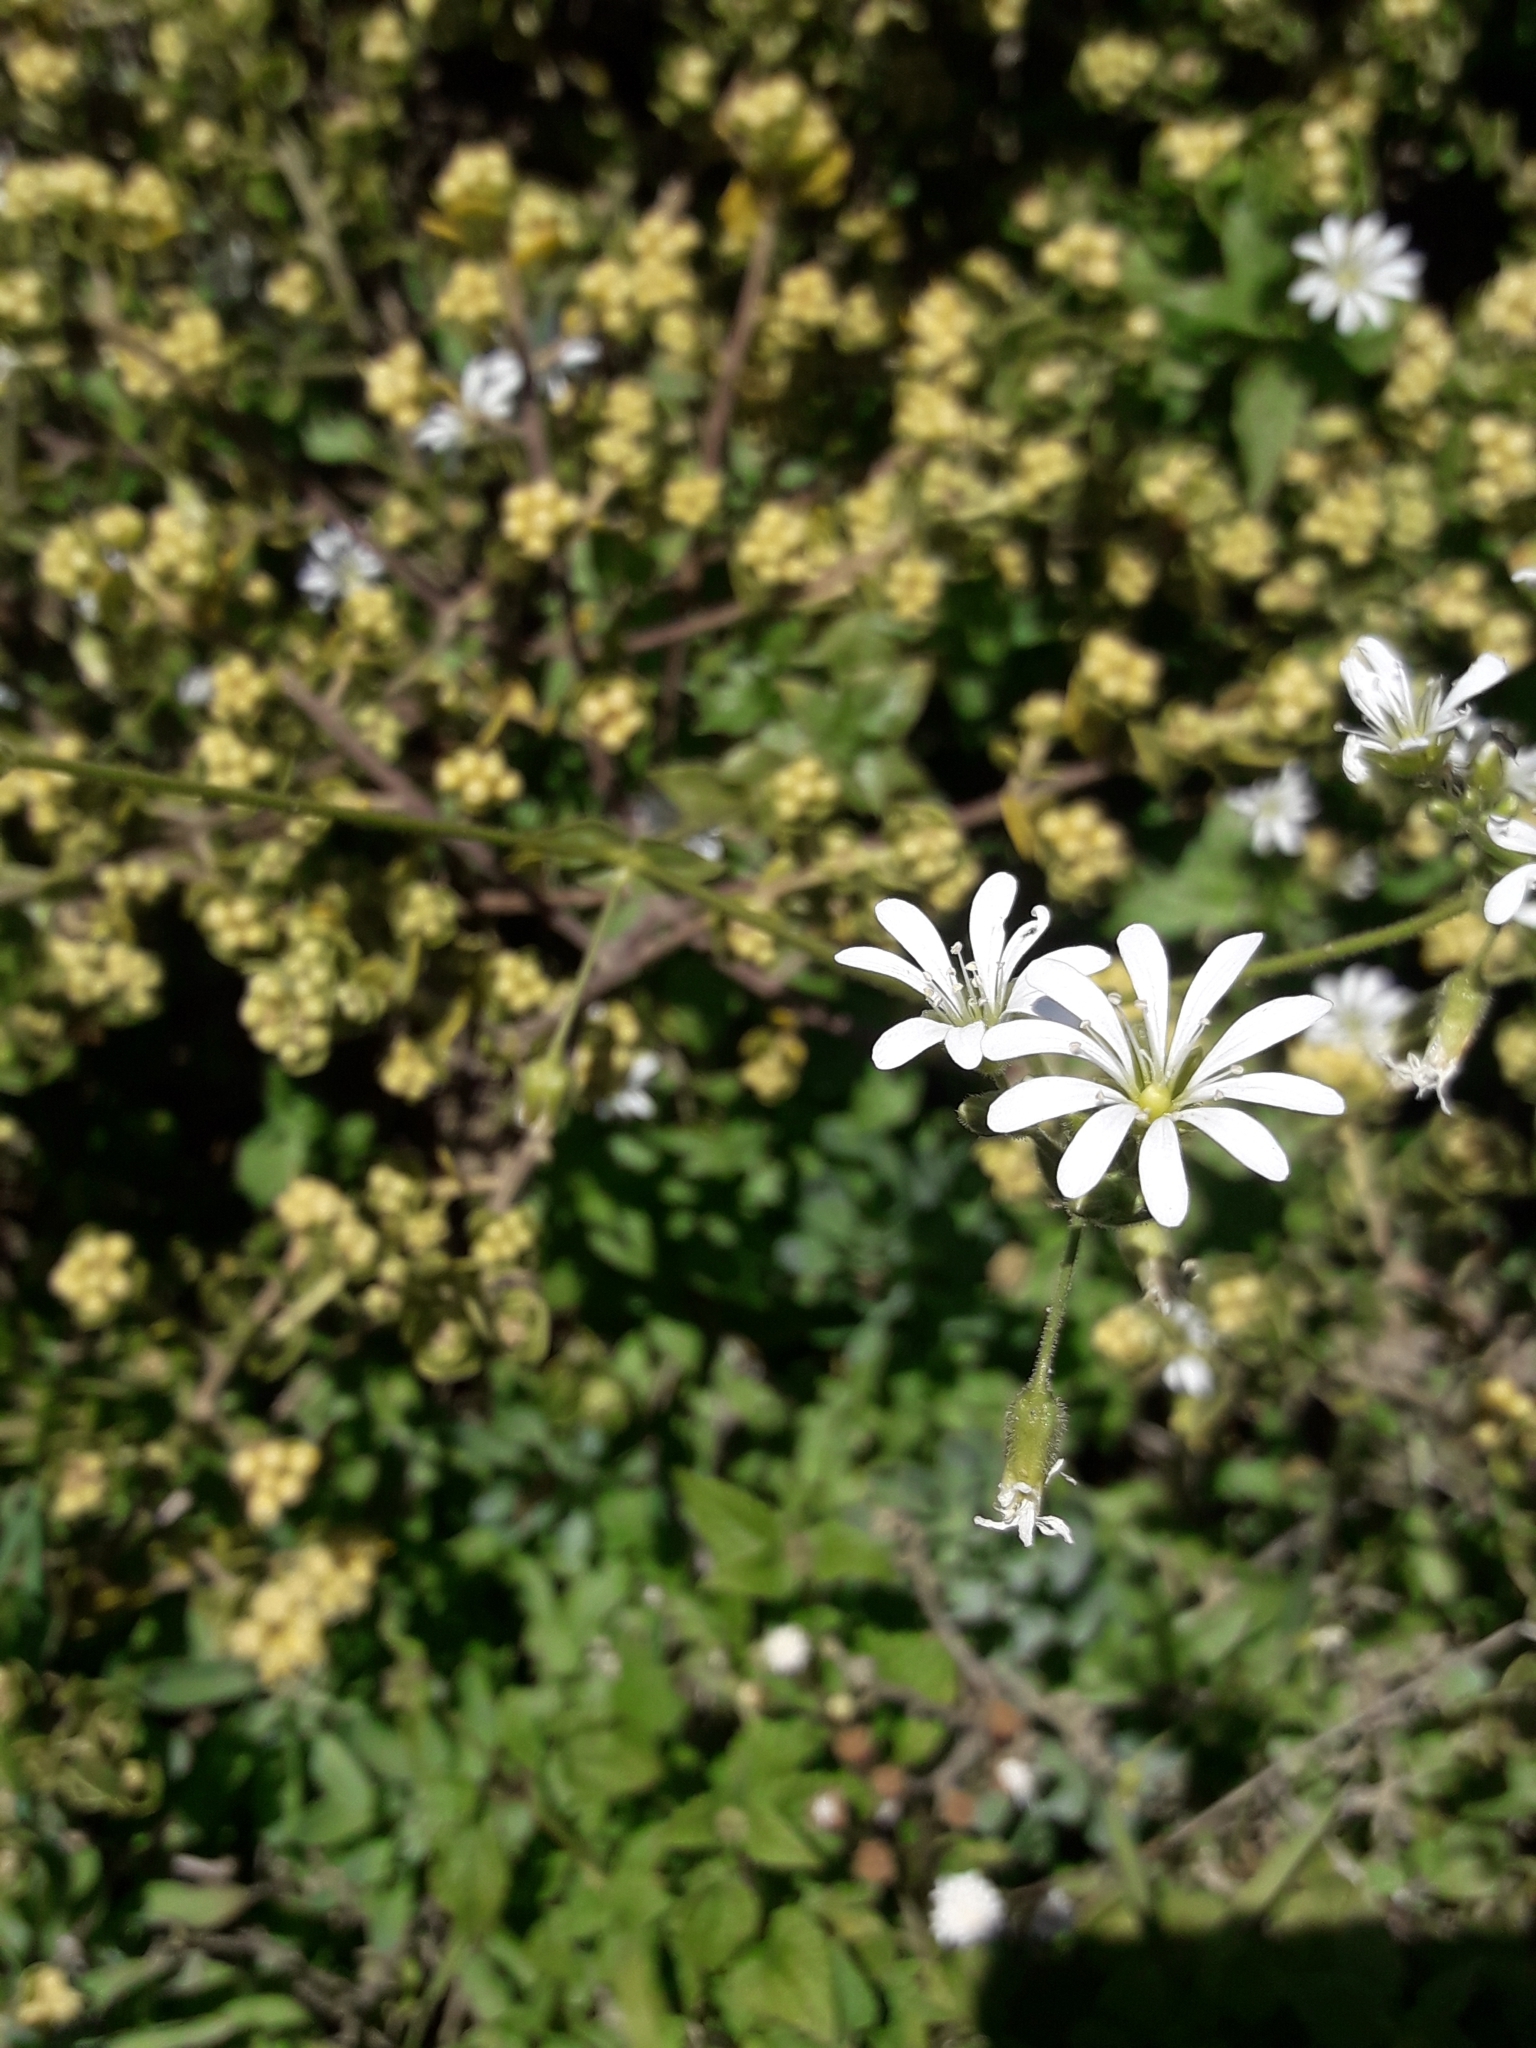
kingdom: Plantae
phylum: Tracheophyta
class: Magnoliopsida
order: Caryophyllales
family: Caryophyllaceae
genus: Stellaria
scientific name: Stellaria chilensis
